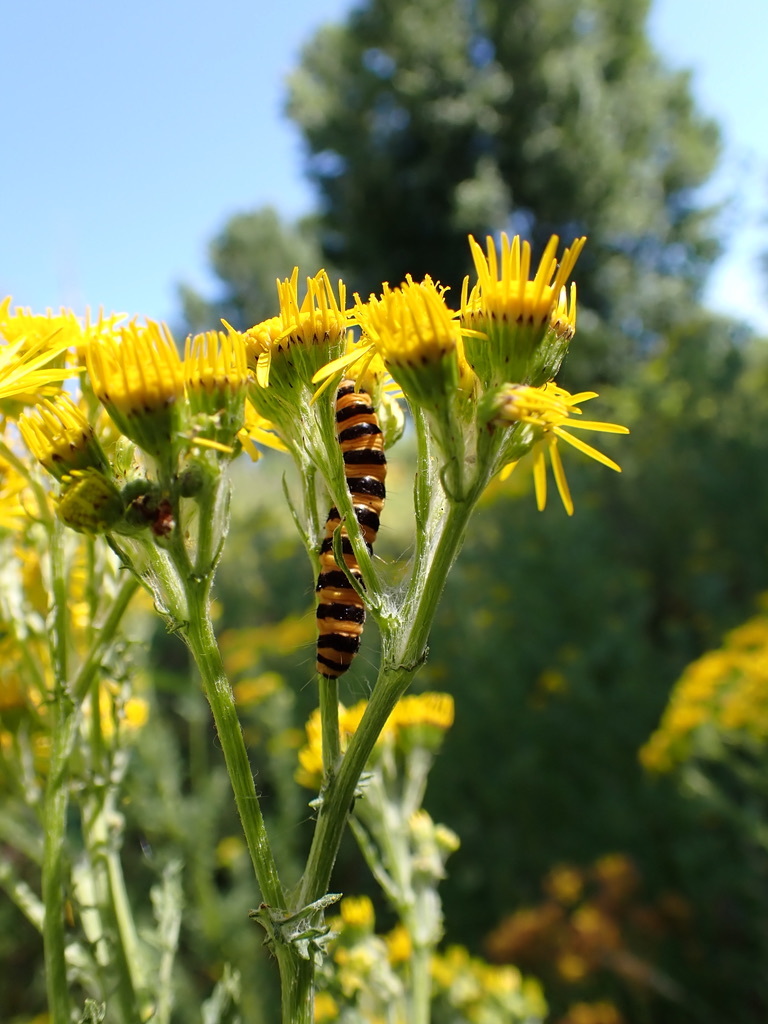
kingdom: Plantae
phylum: Tracheophyta
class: Magnoliopsida
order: Asterales
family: Asteraceae
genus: Jacobaea
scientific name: Jacobaea vulgaris
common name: Stinking willie
